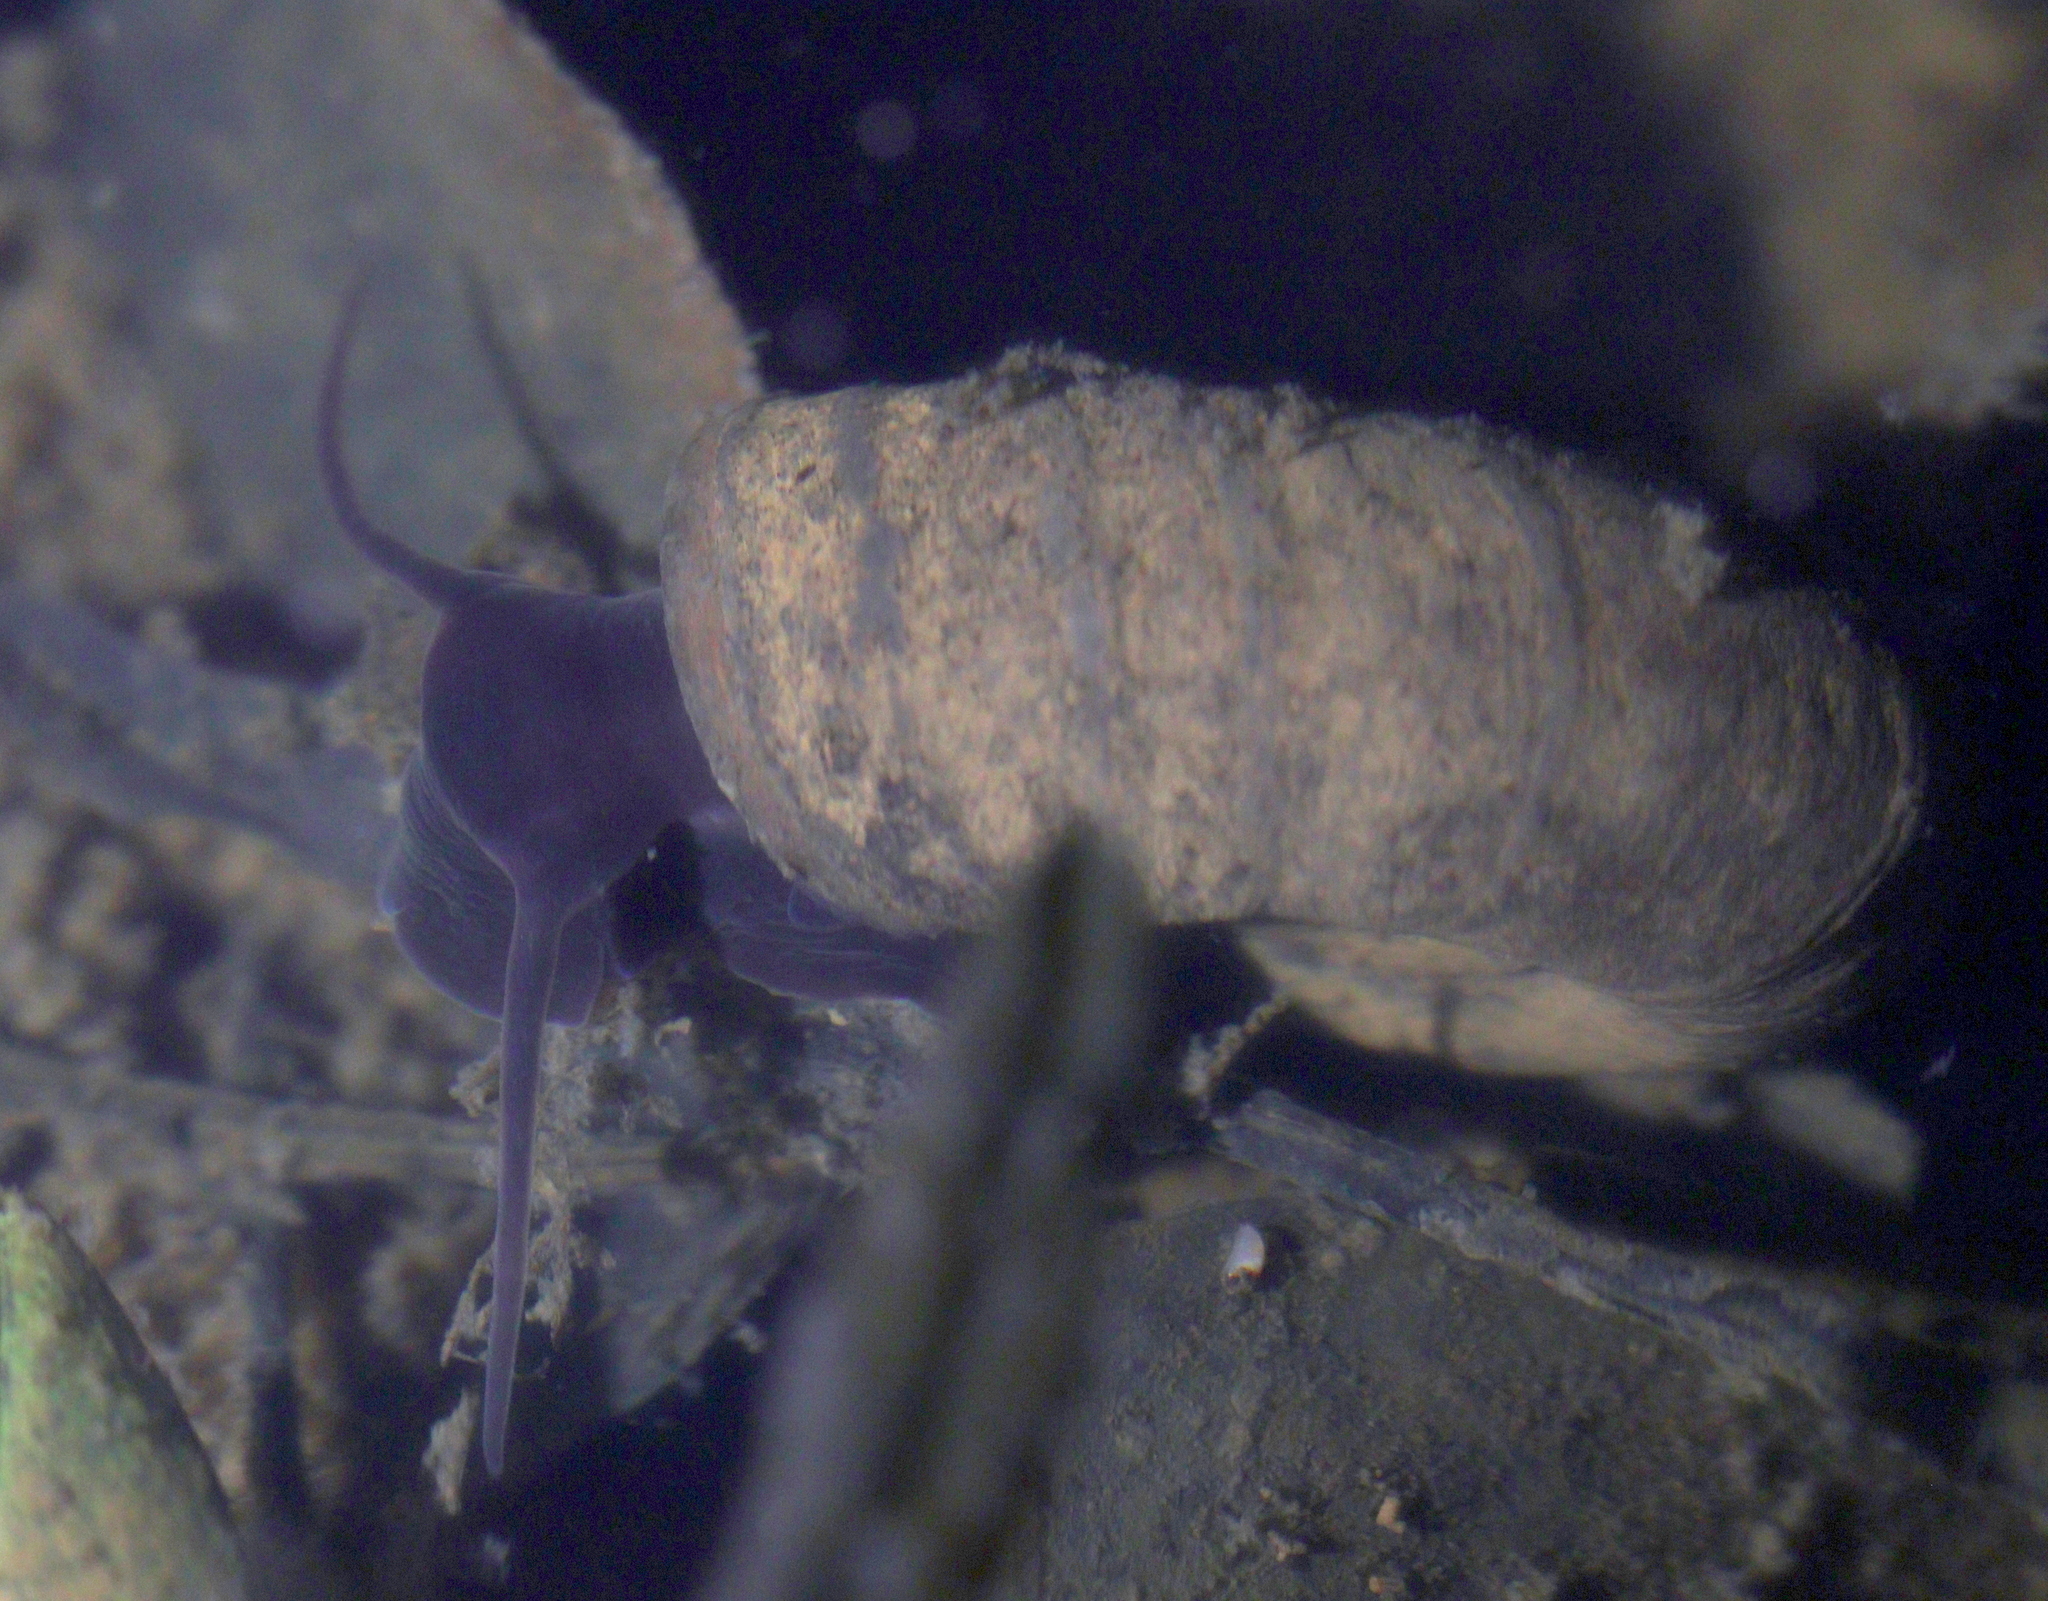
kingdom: Animalia
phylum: Mollusca
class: Gastropoda
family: Planorbidae
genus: Planorbarius
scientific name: Planorbarius corneus
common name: Great ramshorn
